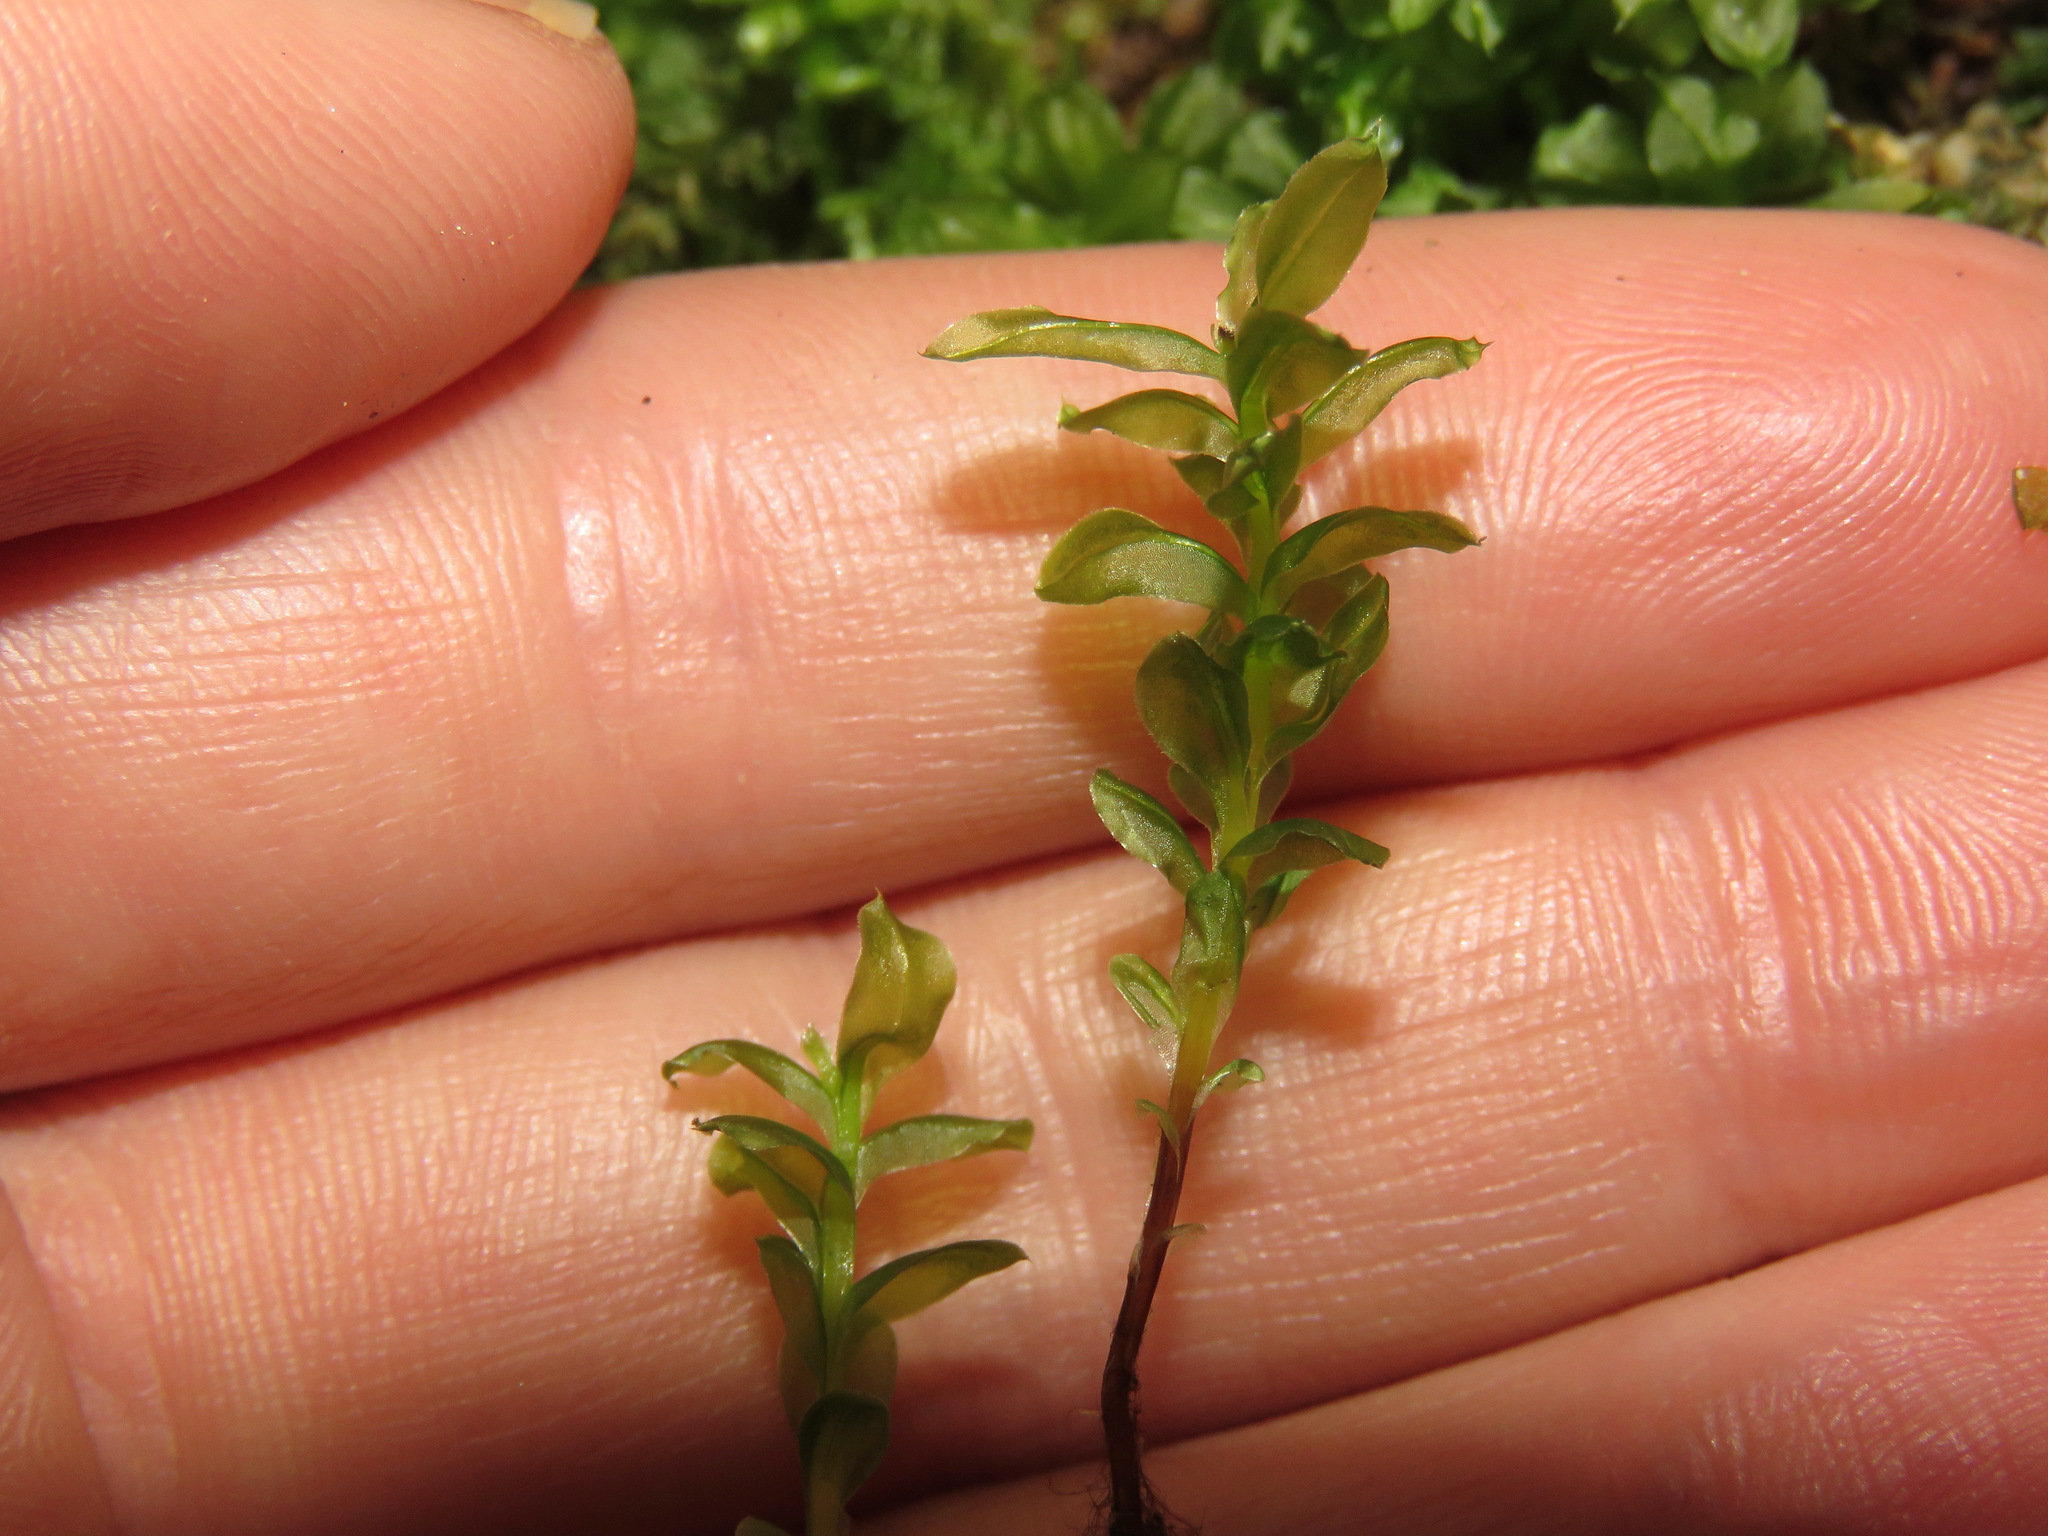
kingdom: Plantae
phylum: Bryophyta
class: Bryopsida
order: Bryales
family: Mniaceae
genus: Plagiomnium
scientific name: Plagiomnium insigne
